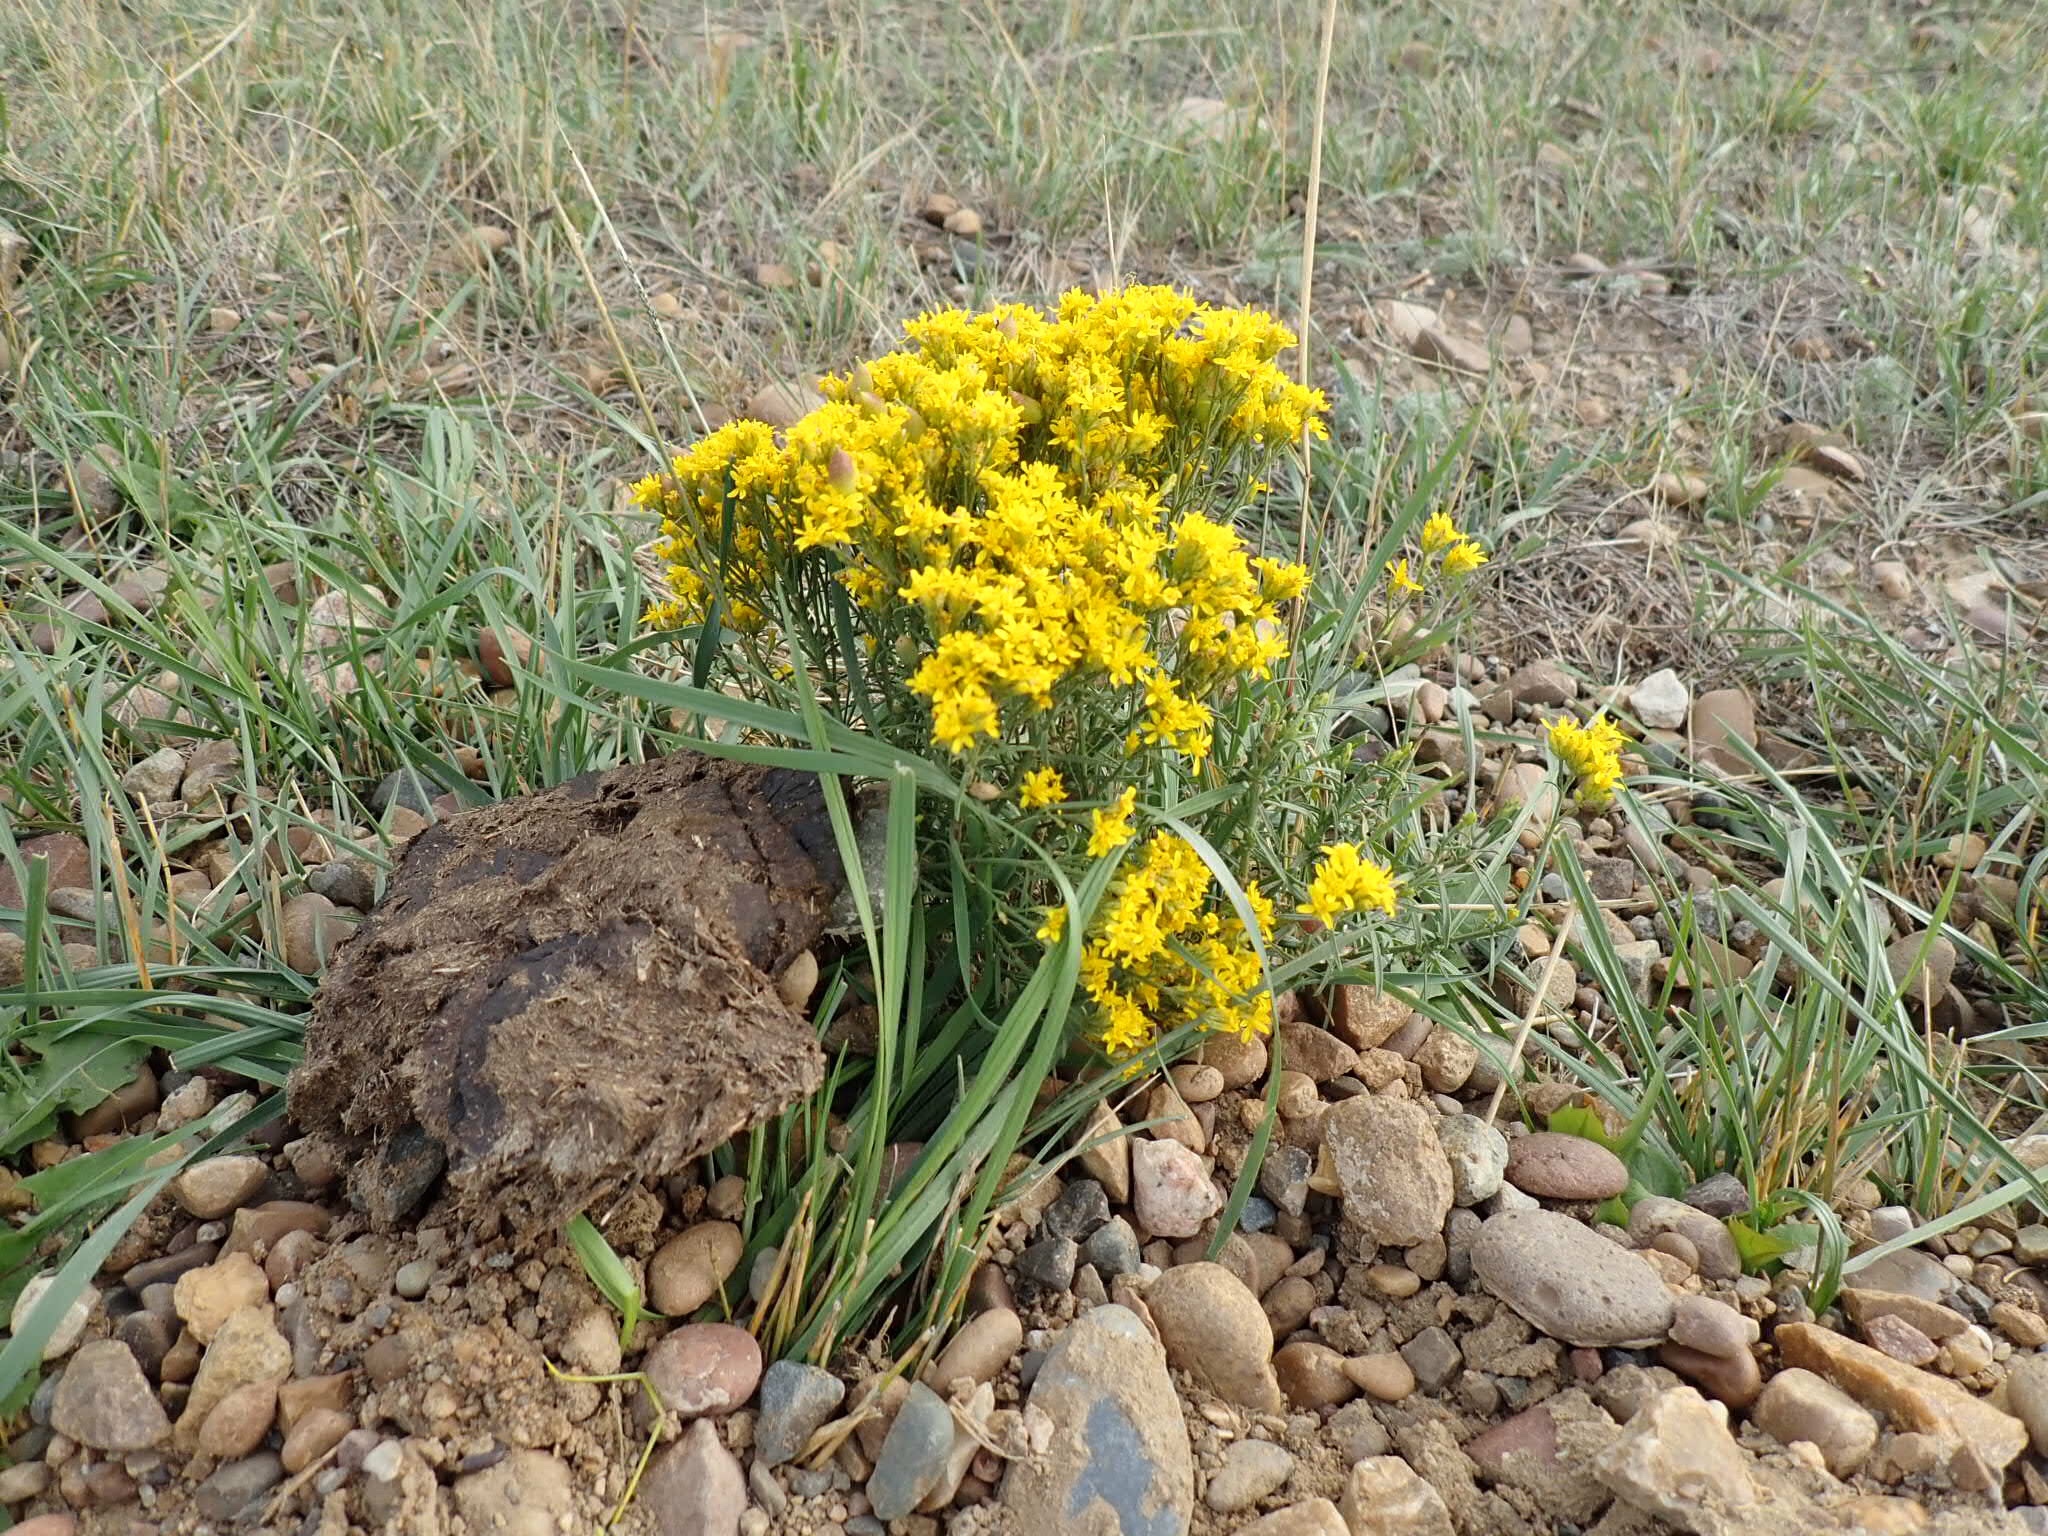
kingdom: Plantae
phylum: Tracheophyta
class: Magnoliopsida
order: Asterales
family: Asteraceae
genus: Ericameria
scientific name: Ericameria nauseosa
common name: Rubber rabbitbrush
